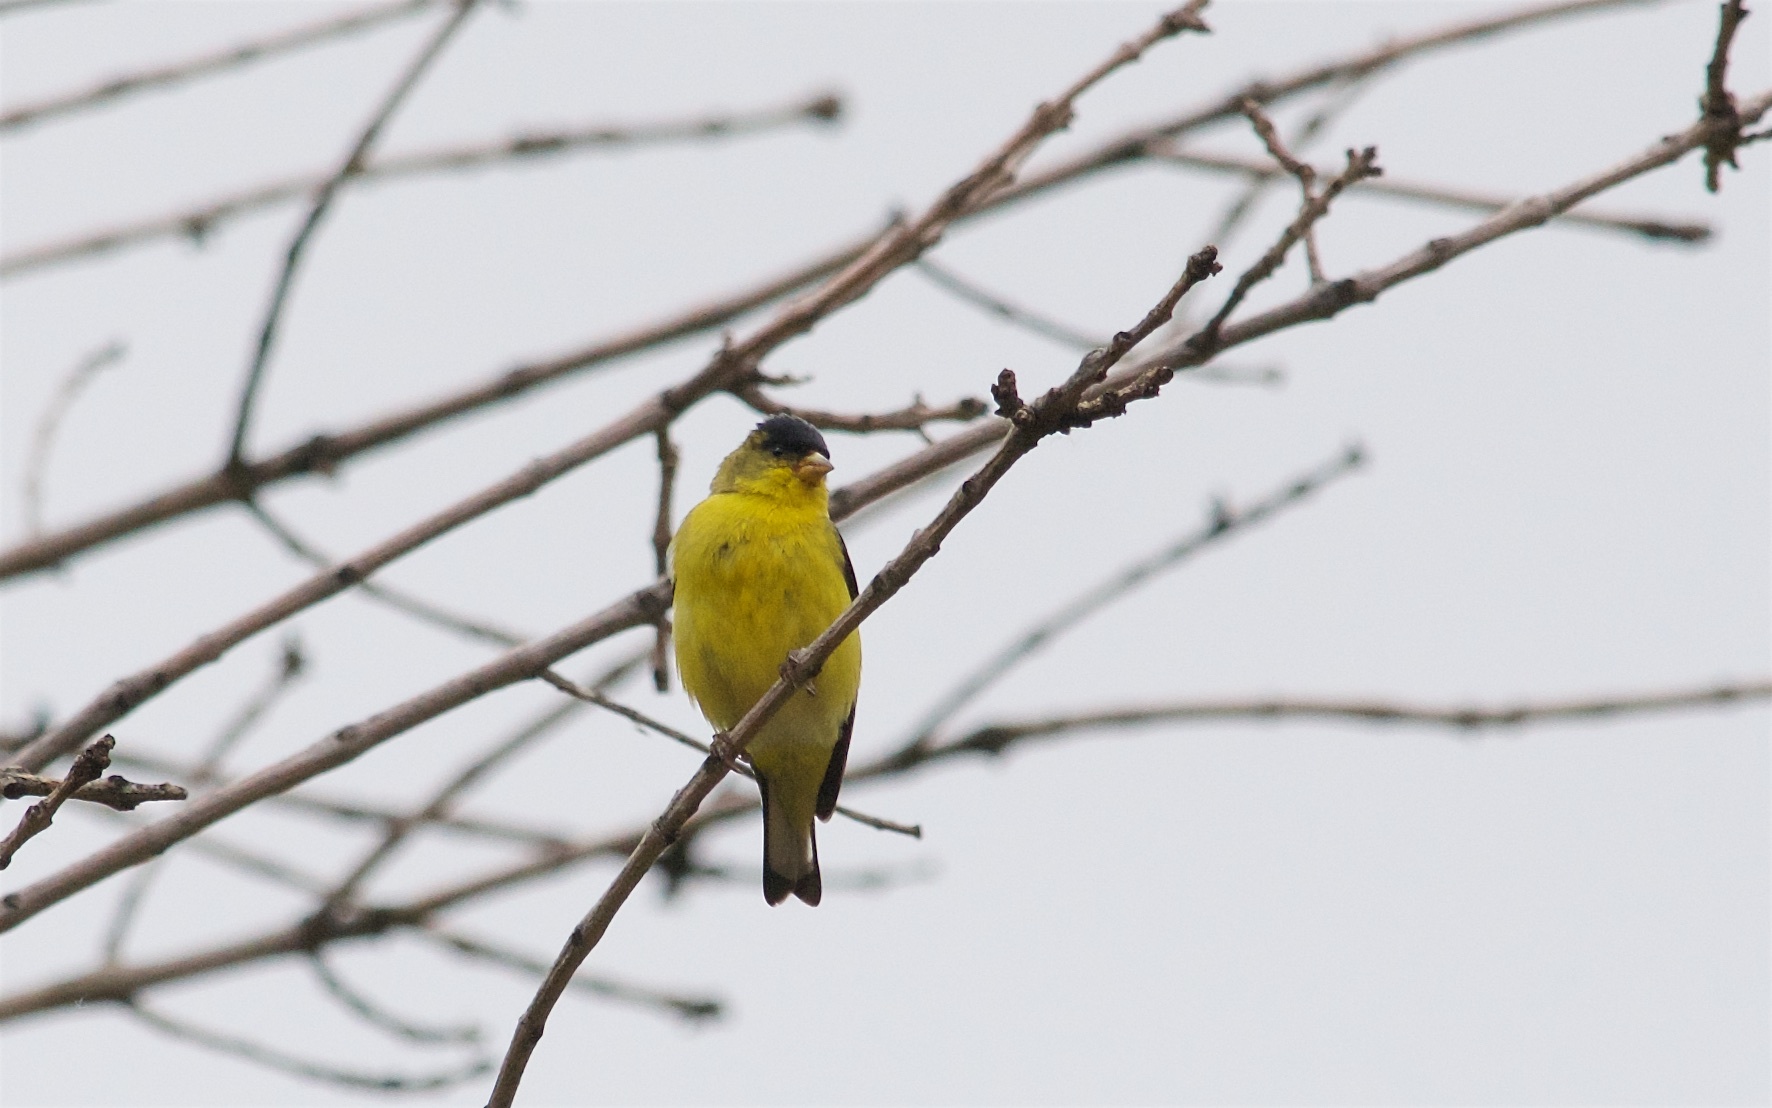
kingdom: Animalia
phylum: Chordata
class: Aves
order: Passeriformes
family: Fringillidae
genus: Spinus
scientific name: Spinus psaltria
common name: Lesser goldfinch
